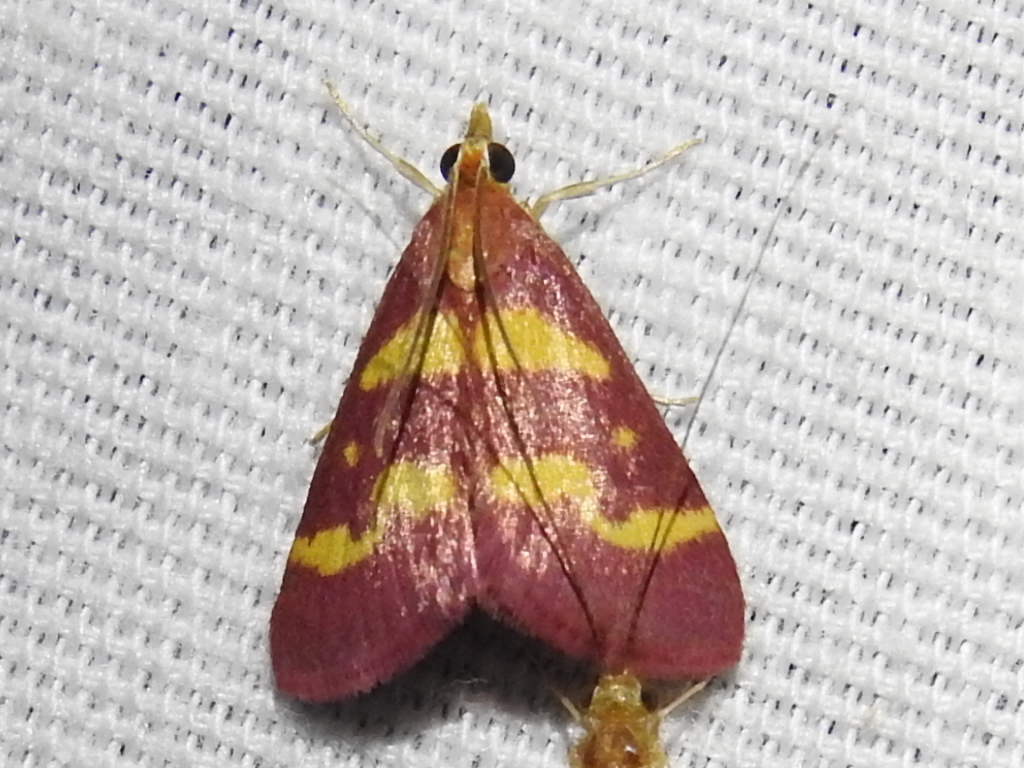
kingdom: Animalia
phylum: Arthropoda
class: Insecta
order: Lepidoptera
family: Crambidae
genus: Pyrausta
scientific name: Pyrausta tyralis
